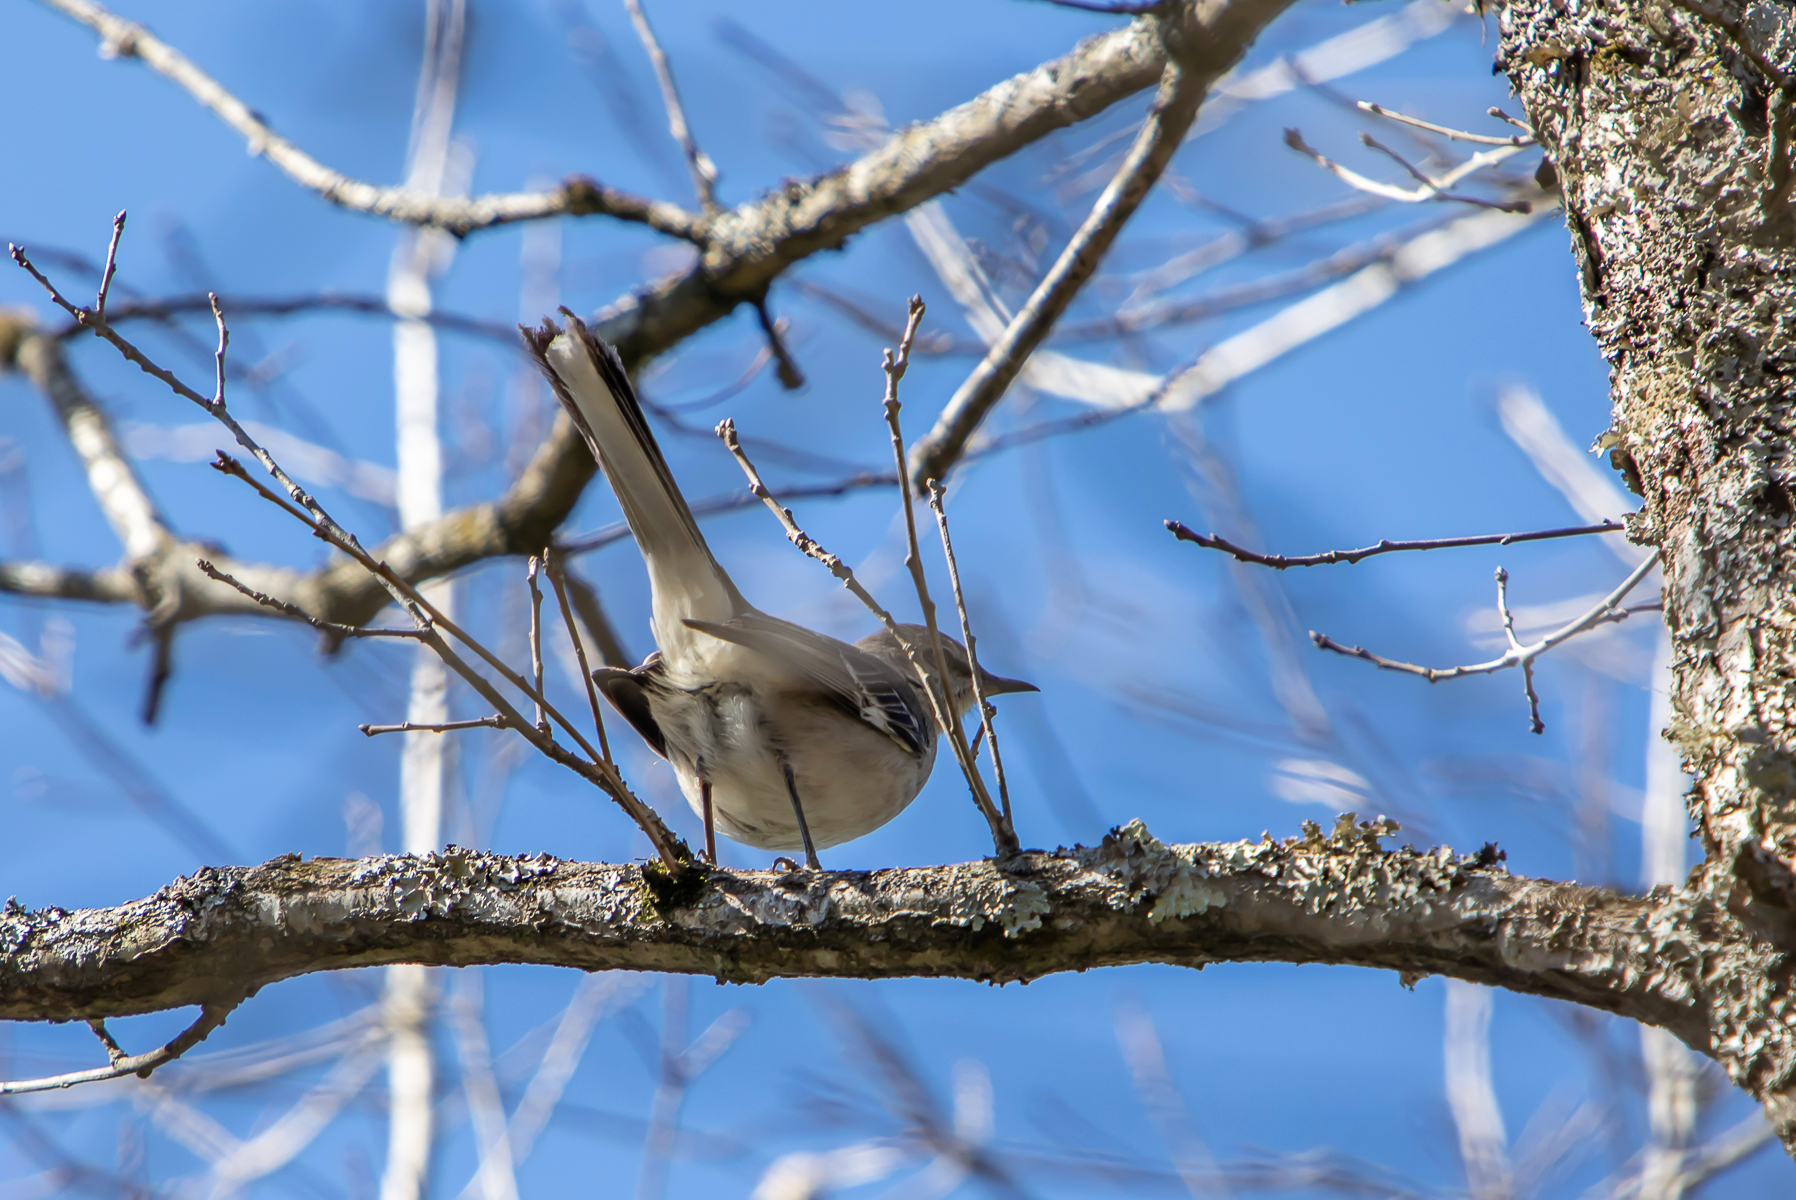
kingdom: Animalia
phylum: Chordata
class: Aves
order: Passeriformes
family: Mimidae
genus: Mimus
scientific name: Mimus polyglottos
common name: Northern mockingbird
